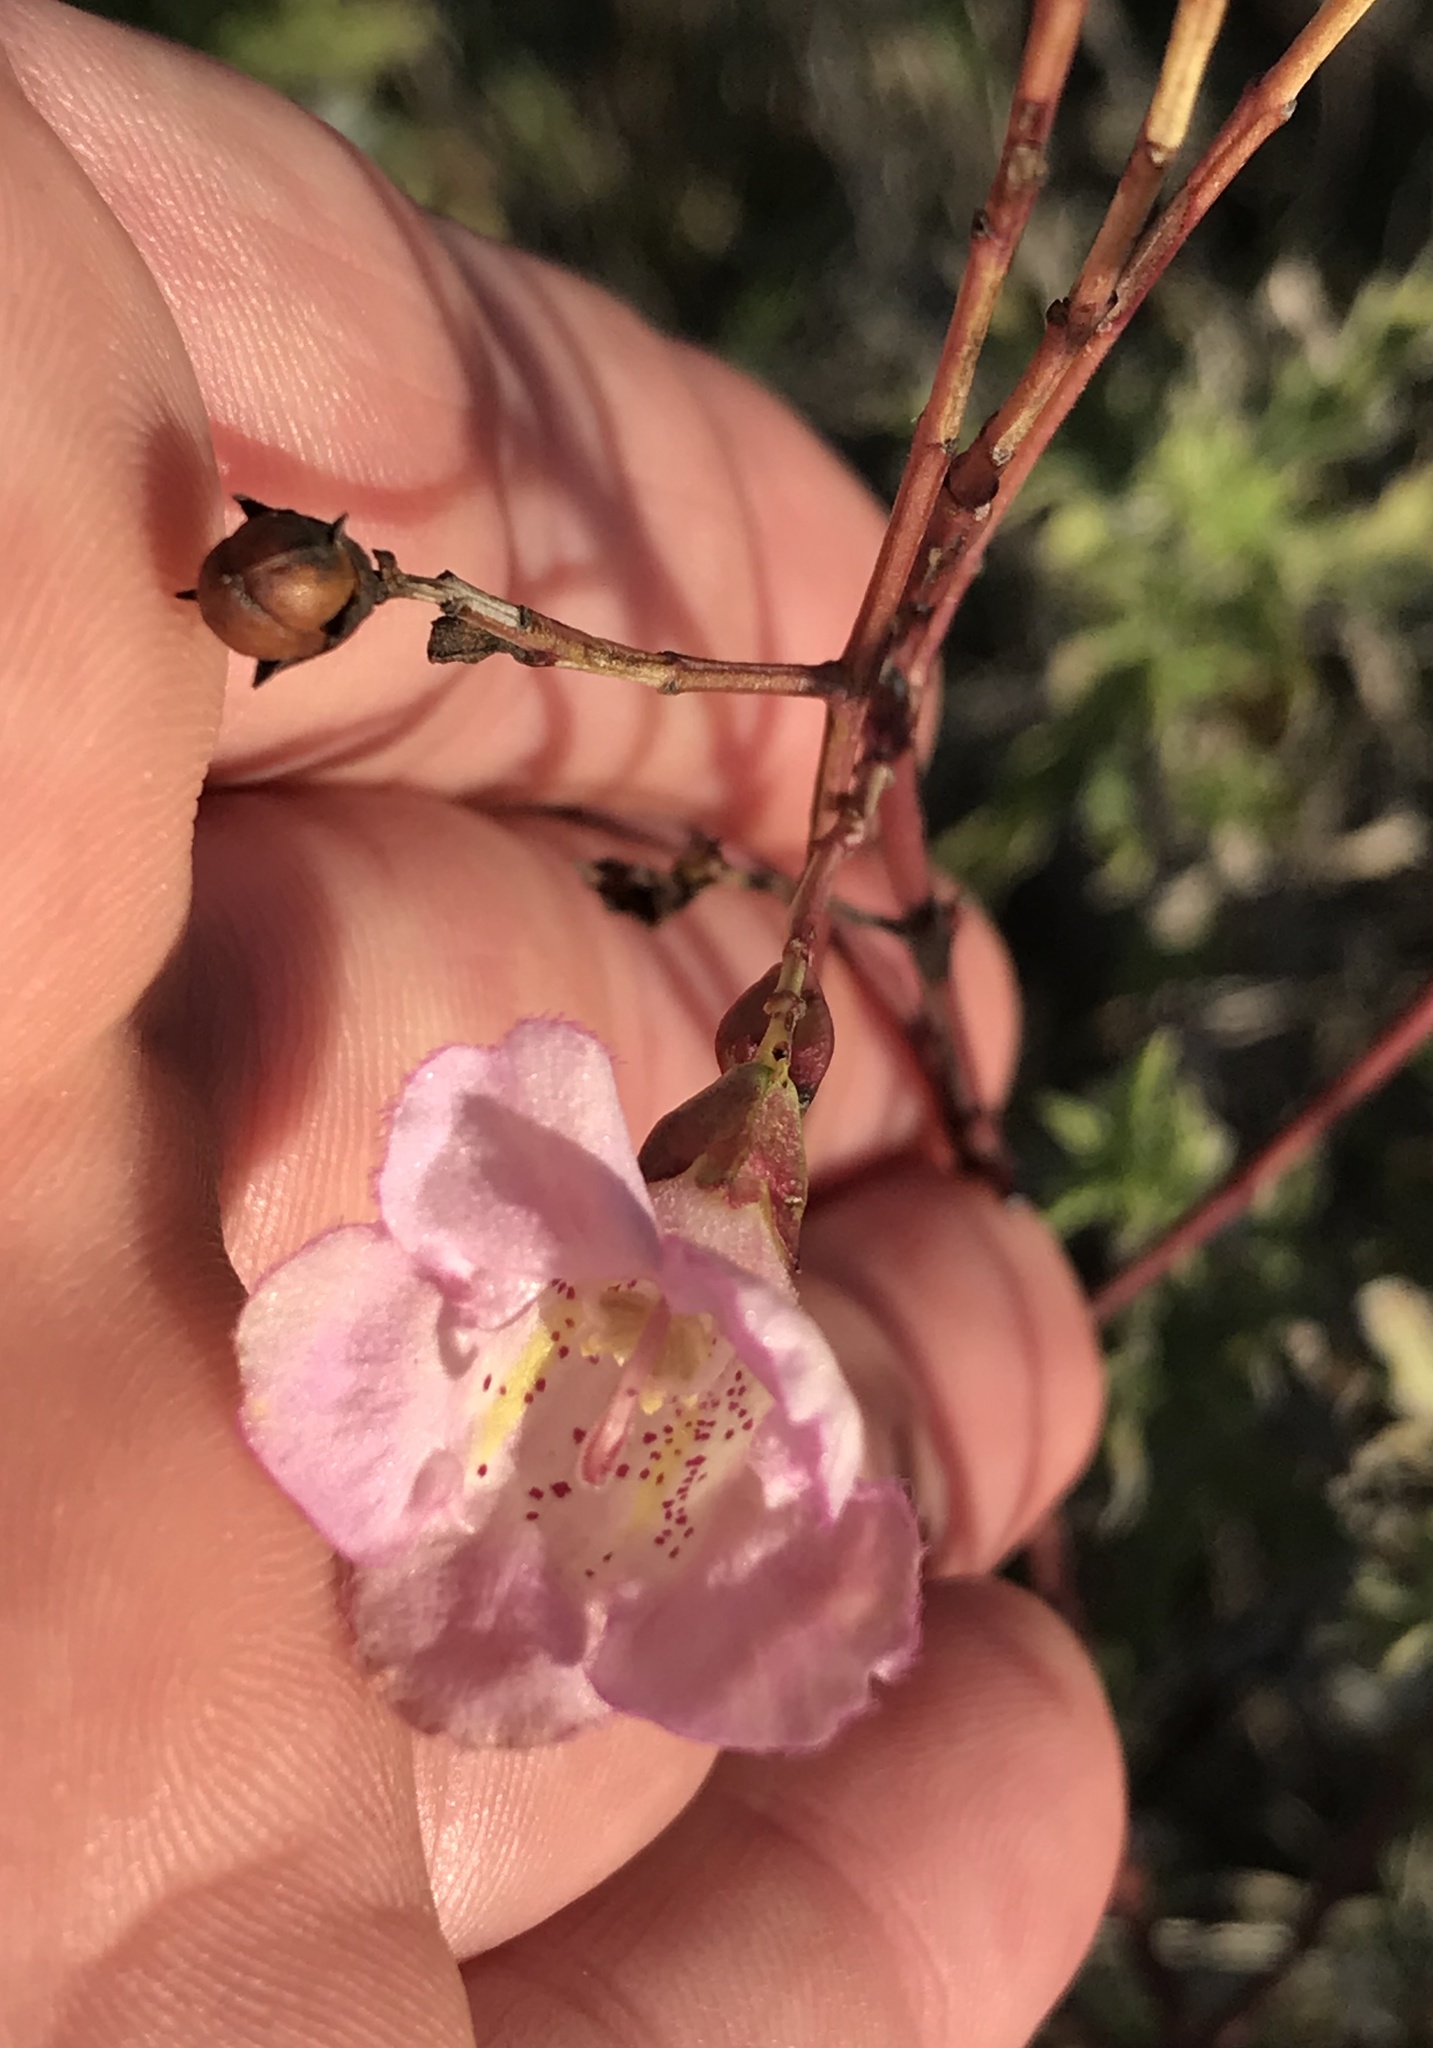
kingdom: Plantae
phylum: Tracheophyta
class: Magnoliopsida
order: Lamiales
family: Orobanchaceae
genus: Agalinis
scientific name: Agalinis heterophylla
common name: Prairie agalinis
